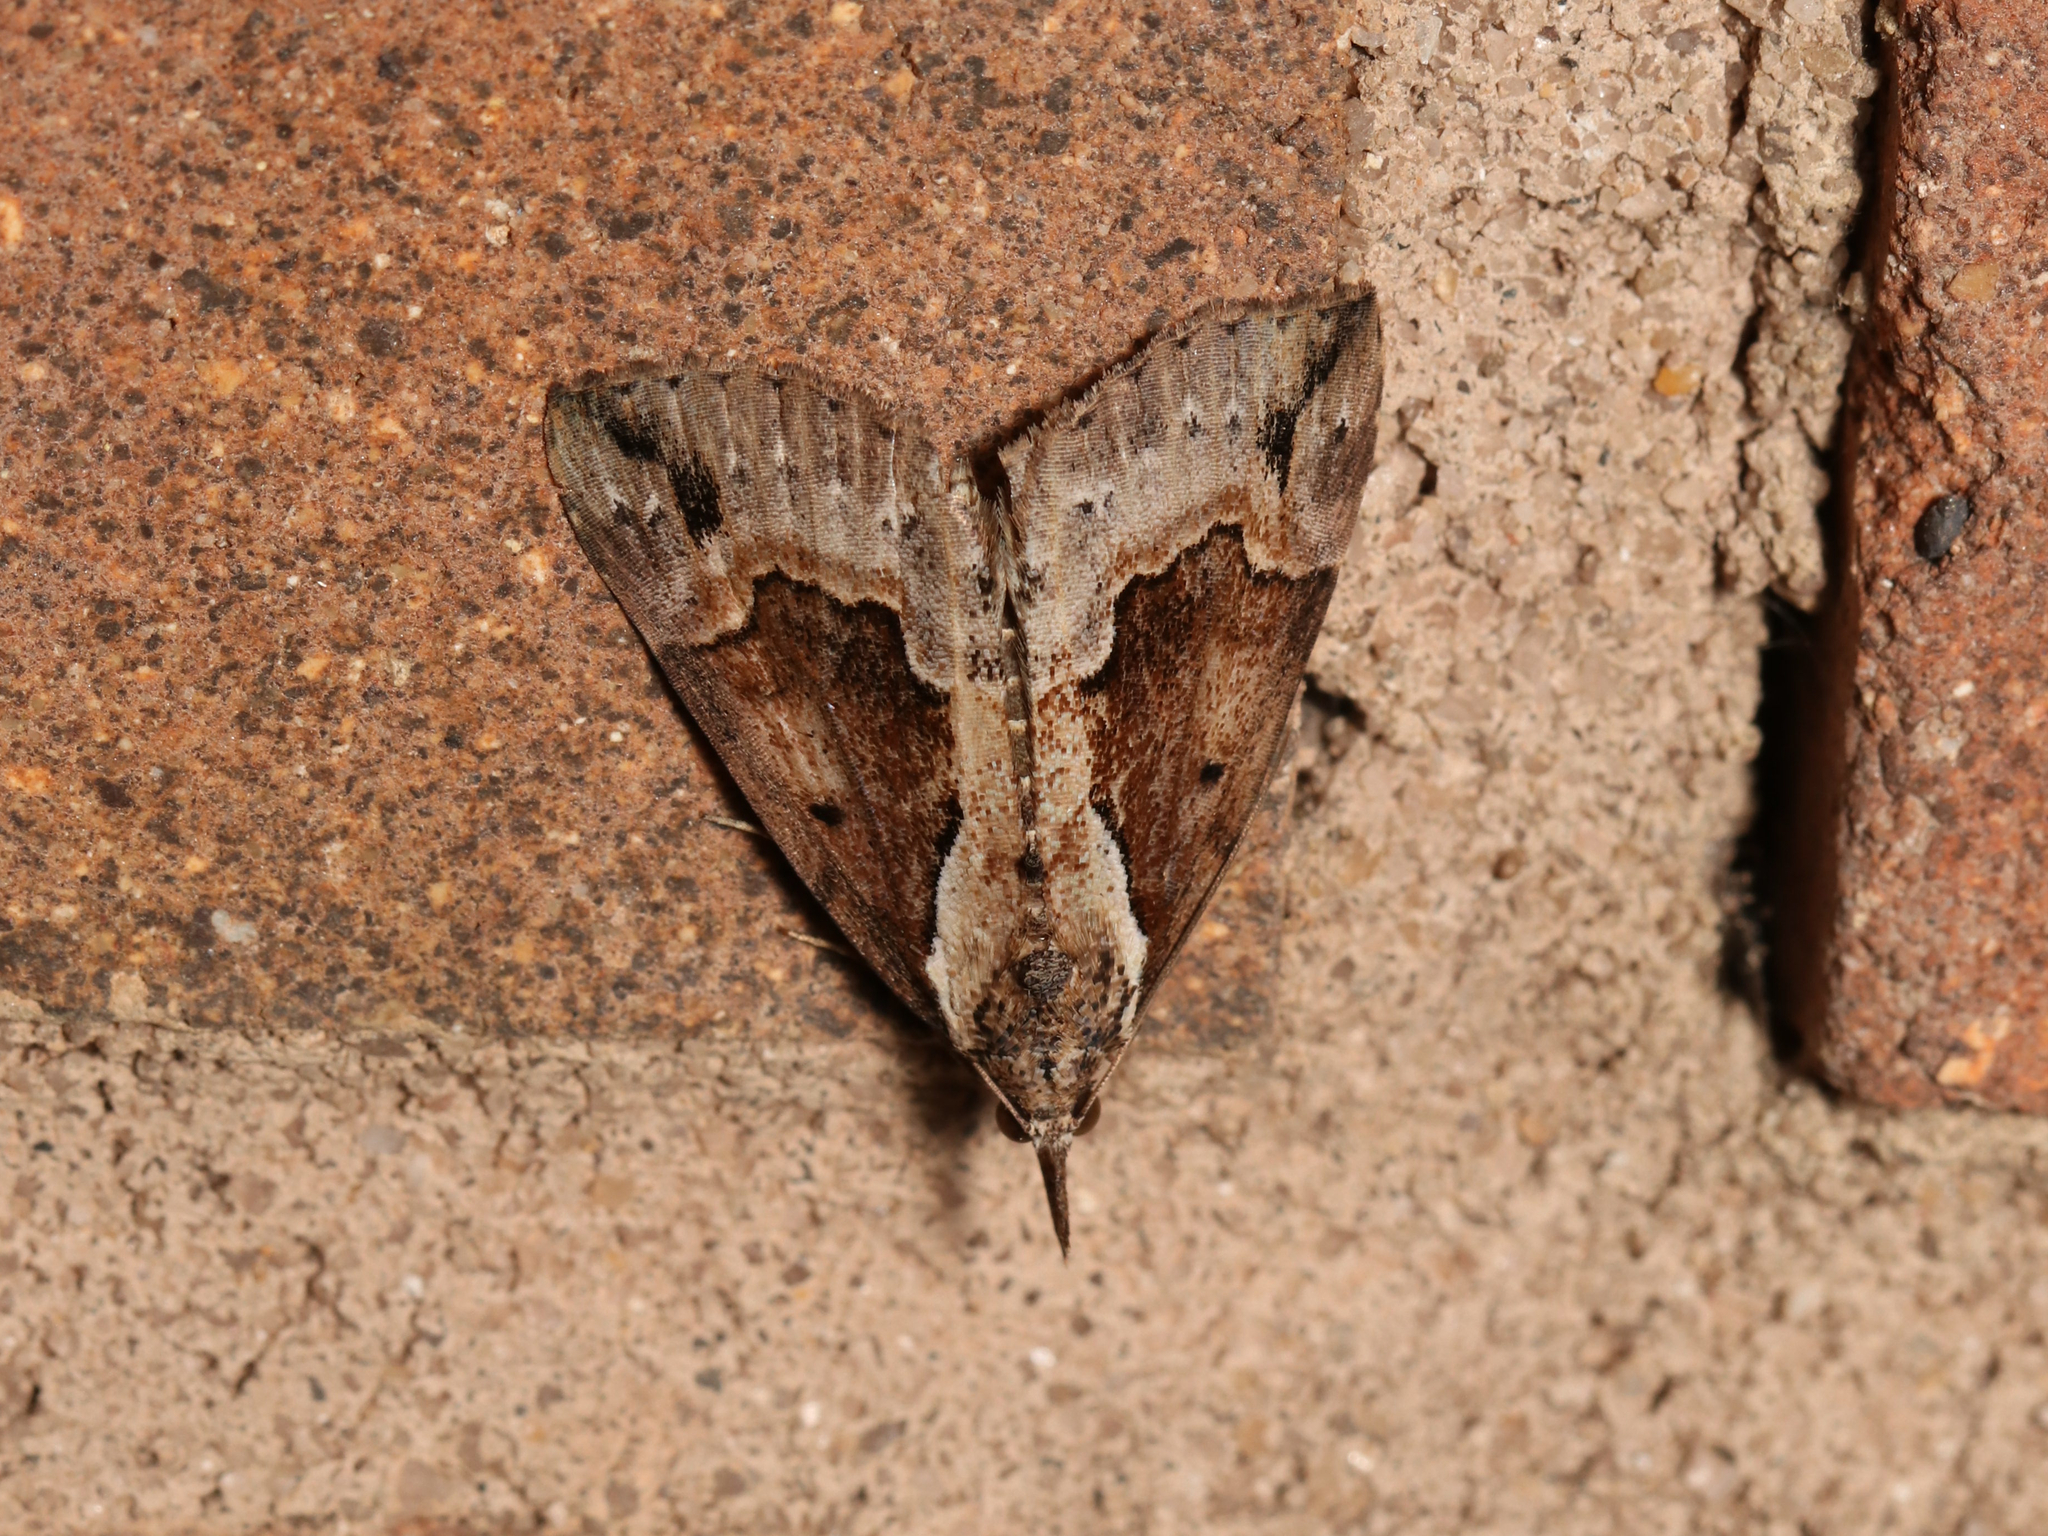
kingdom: Animalia
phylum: Arthropoda
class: Insecta
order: Lepidoptera
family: Erebidae
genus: Hypena
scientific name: Hypena baltimoralis
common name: Baltimore snout
